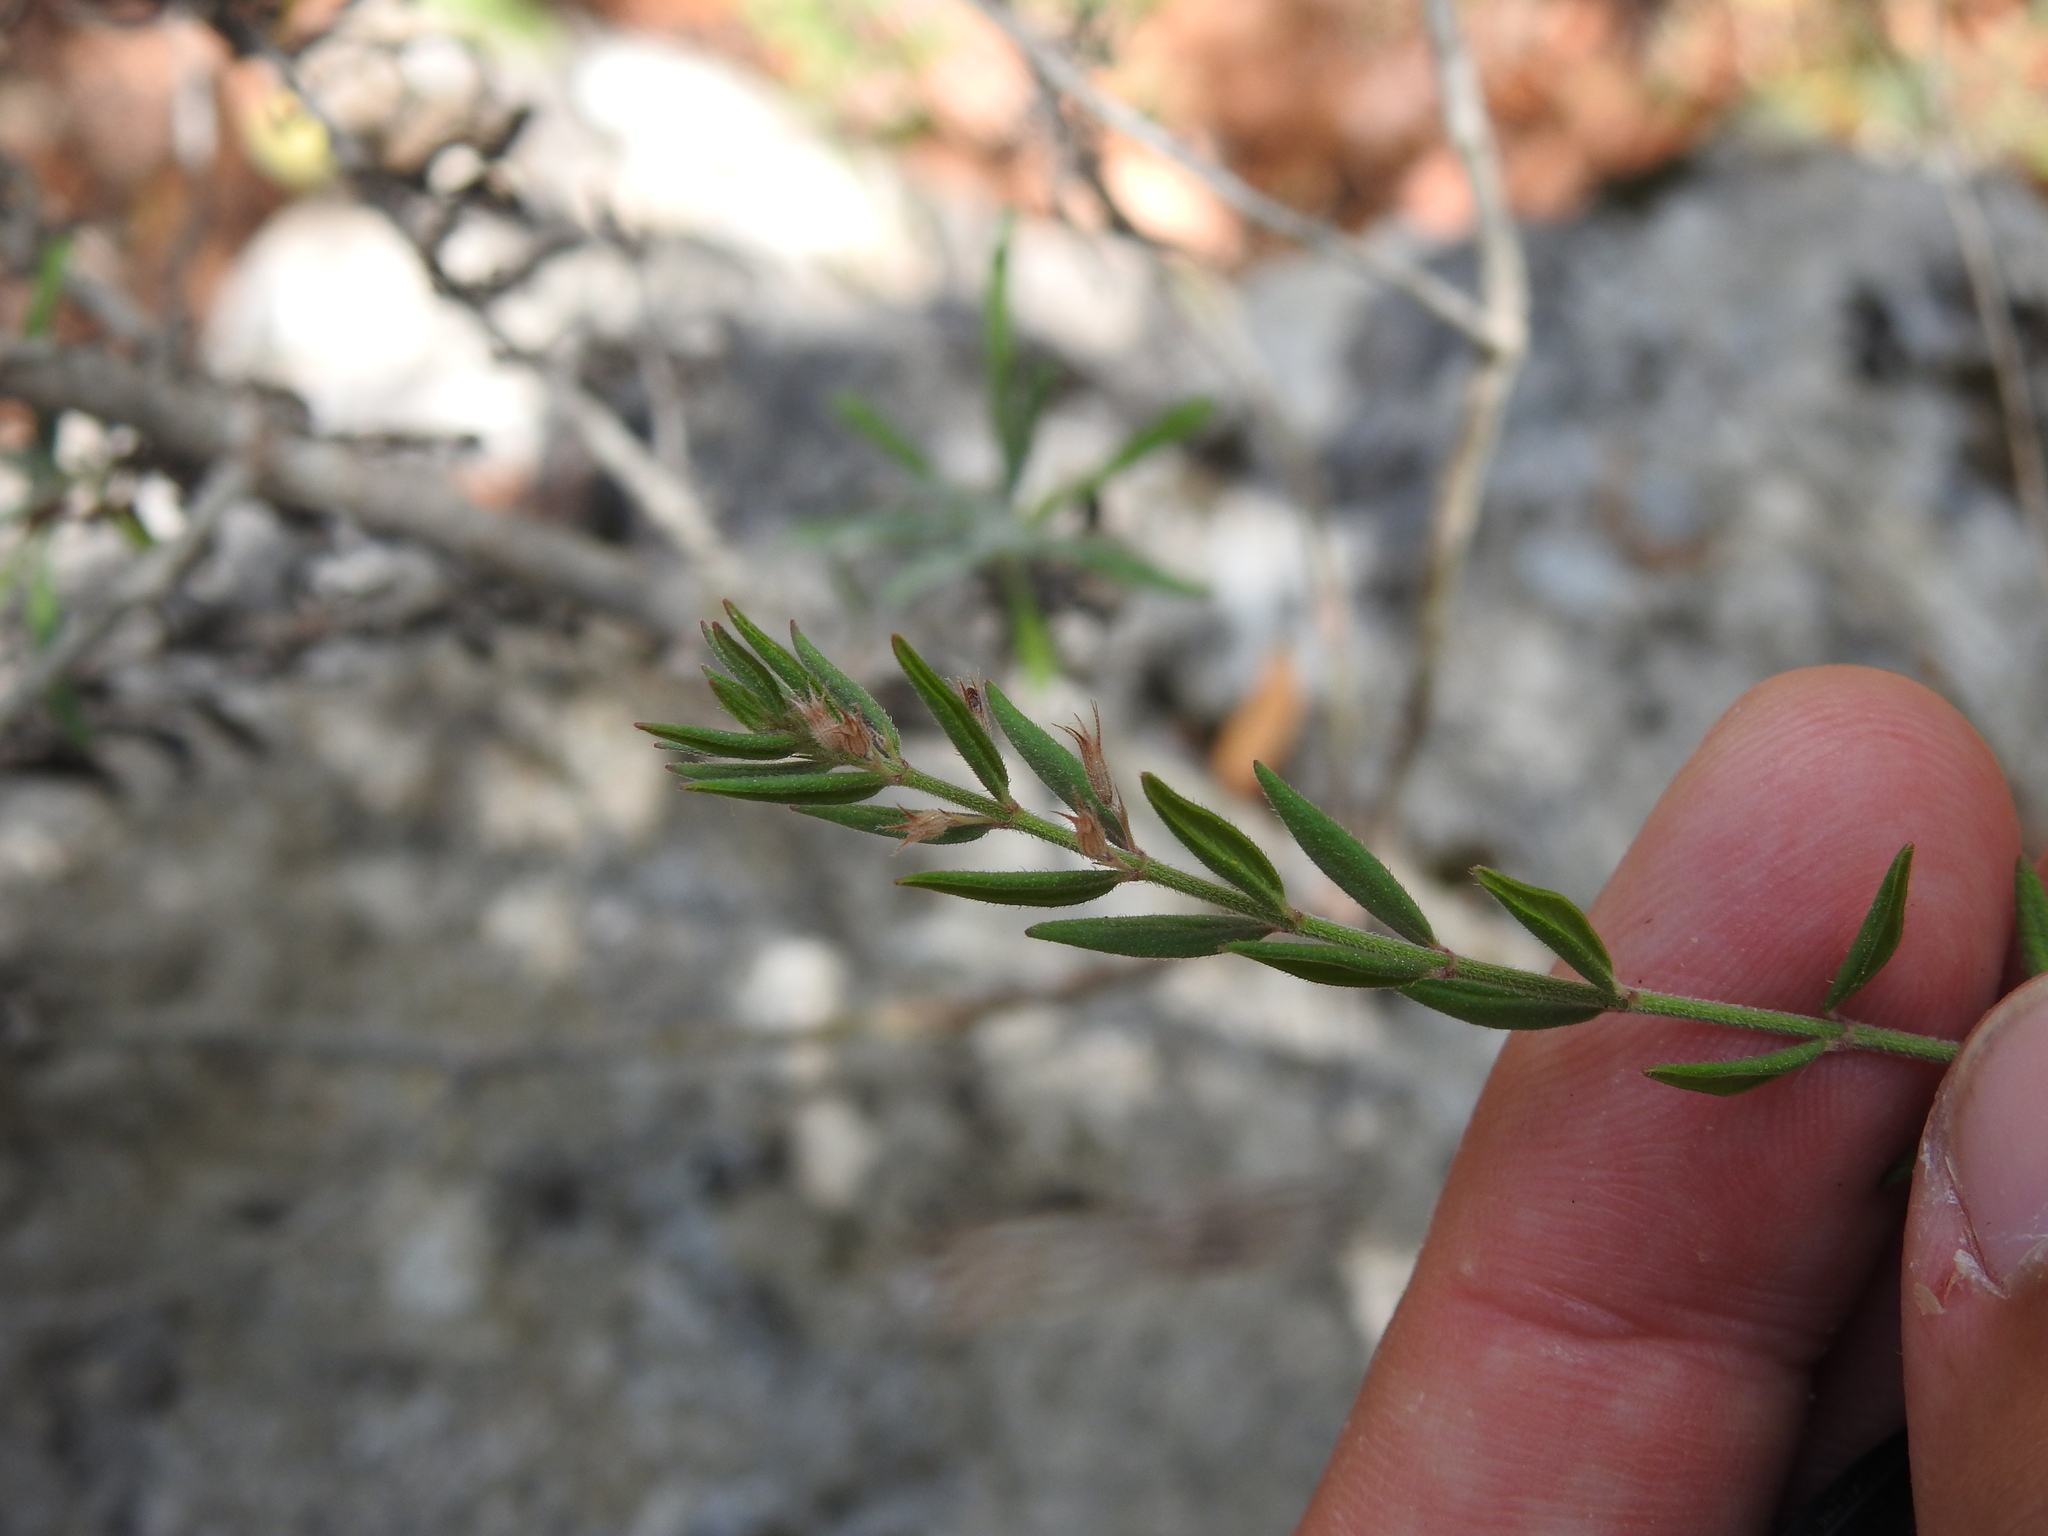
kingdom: Plantae
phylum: Tracheophyta
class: Magnoliopsida
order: Lamiales
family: Lamiaceae
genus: Micromeria
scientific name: Micromeria graeca
